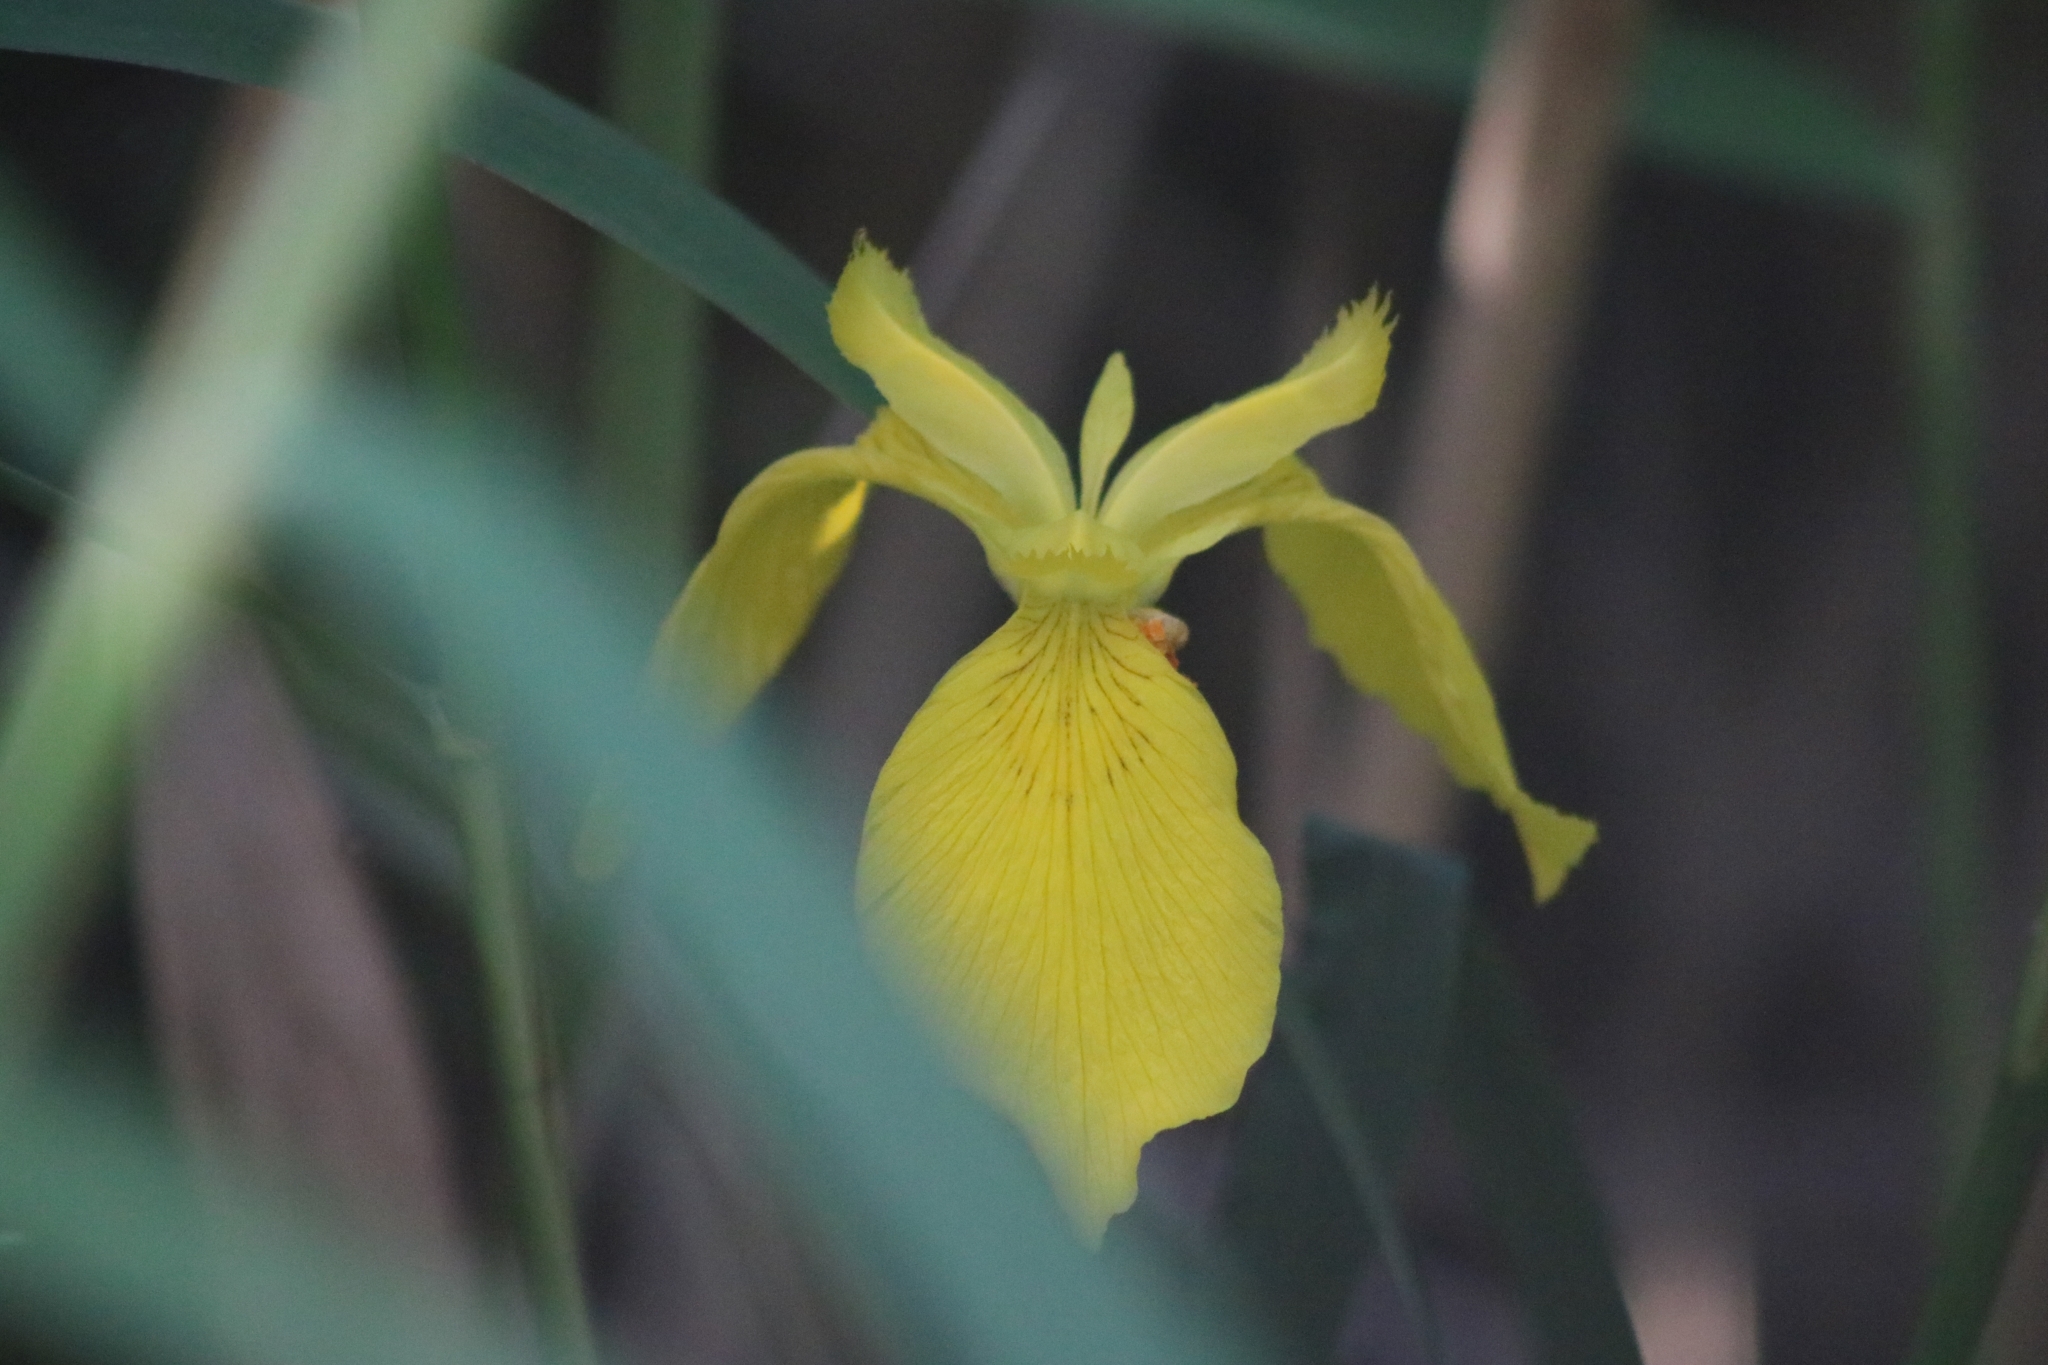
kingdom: Plantae
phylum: Tracheophyta
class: Liliopsida
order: Asparagales
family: Iridaceae
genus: Iris
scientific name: Iris pseudacorus
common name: Yellow flag
